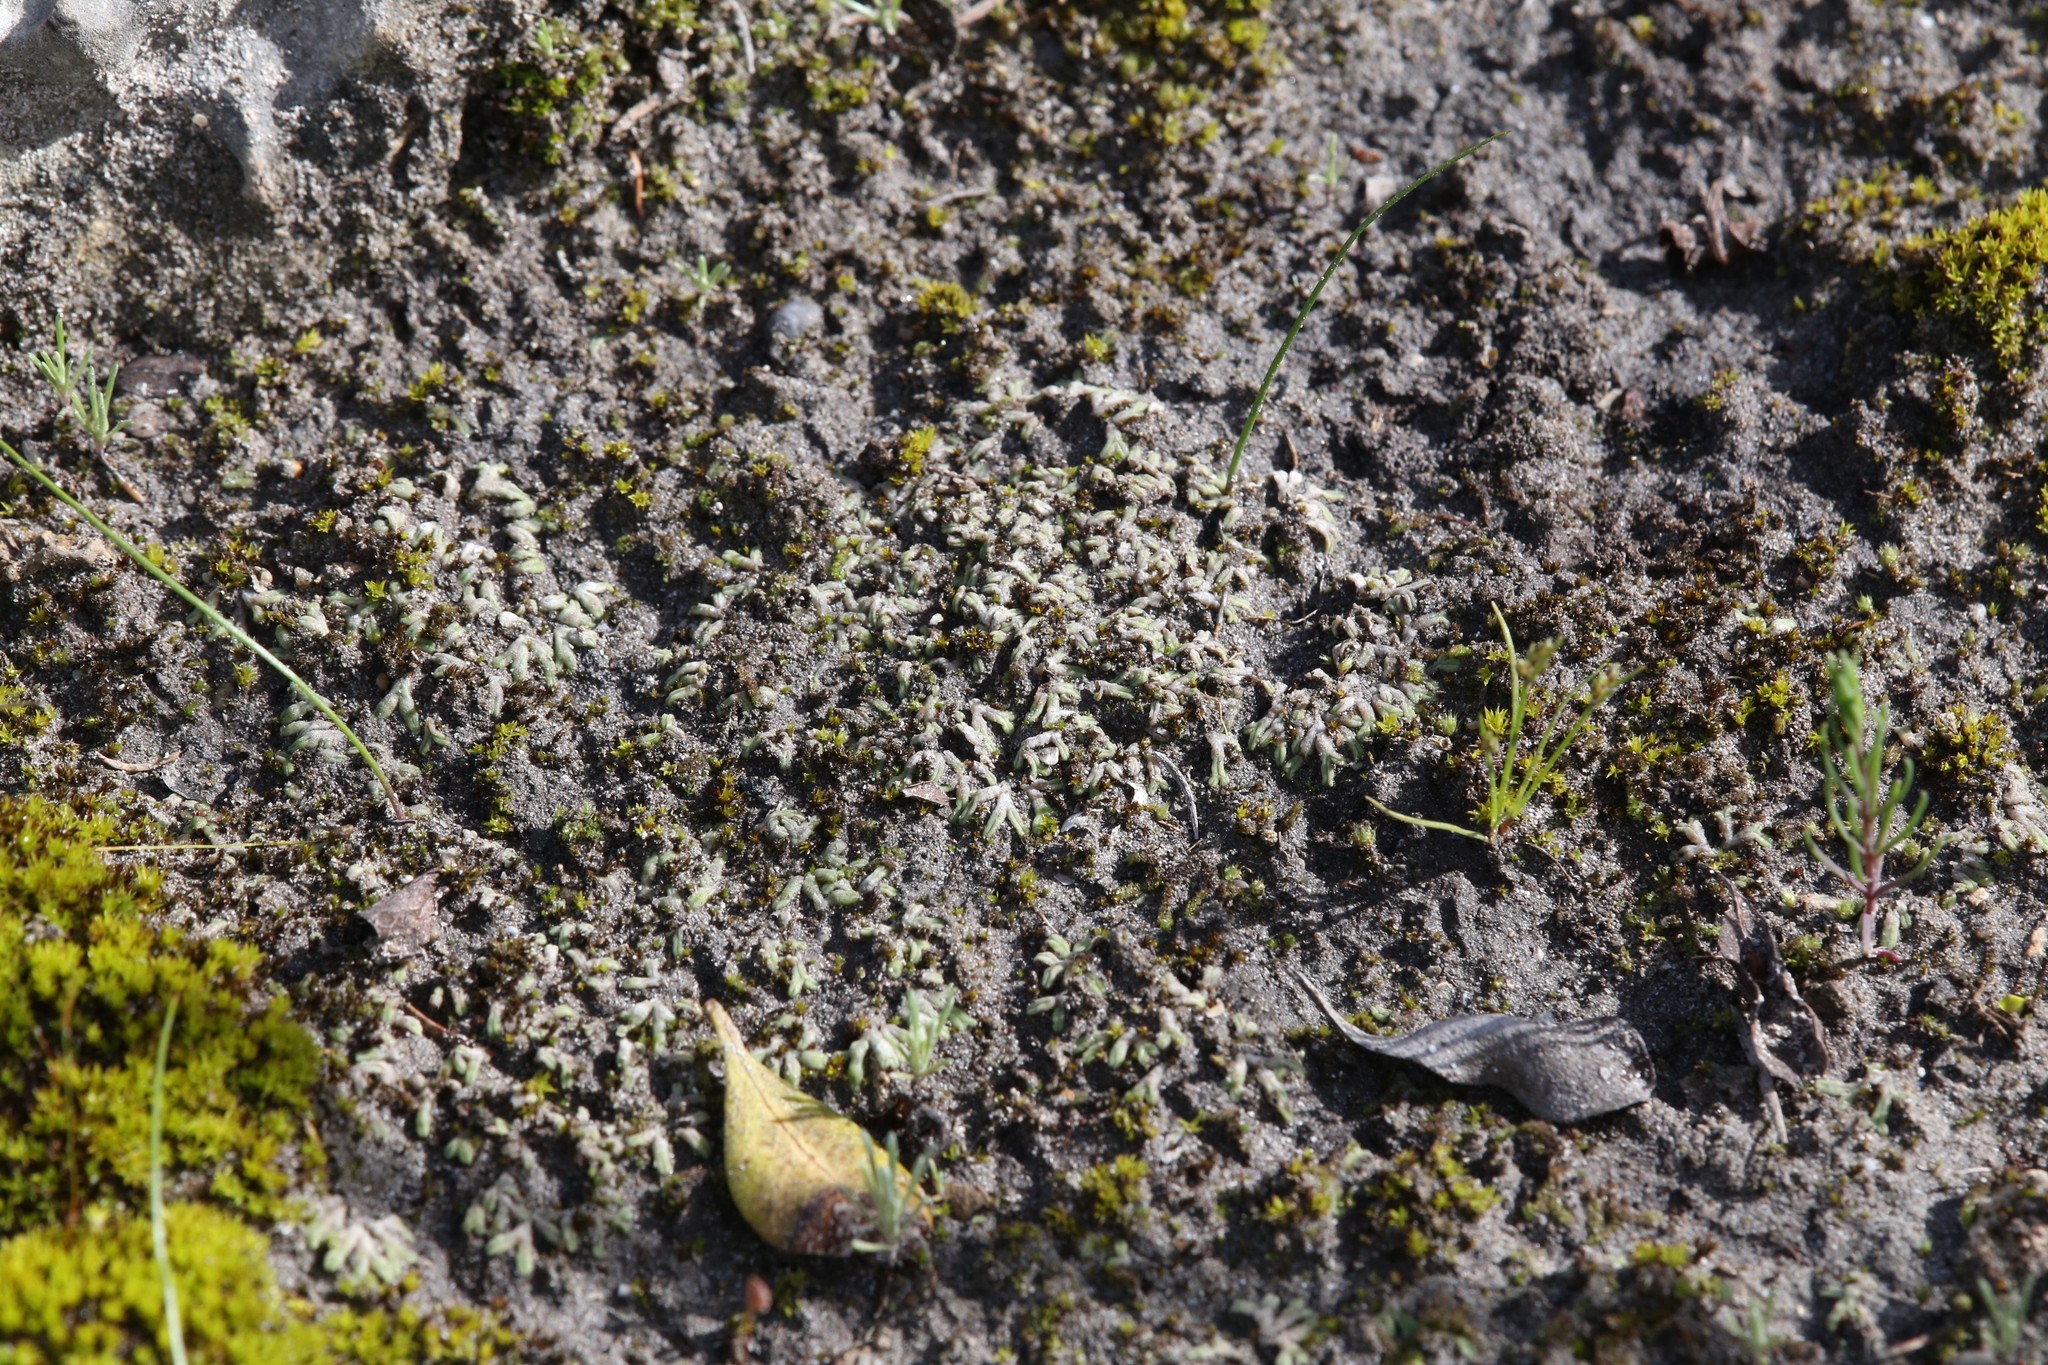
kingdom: Plantae
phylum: Marchantiophyta
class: Marchantiopsida
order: Marchantiales
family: Ricciaceae
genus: Riccia
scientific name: Riccia sorocarpa
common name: Common crystalwort
